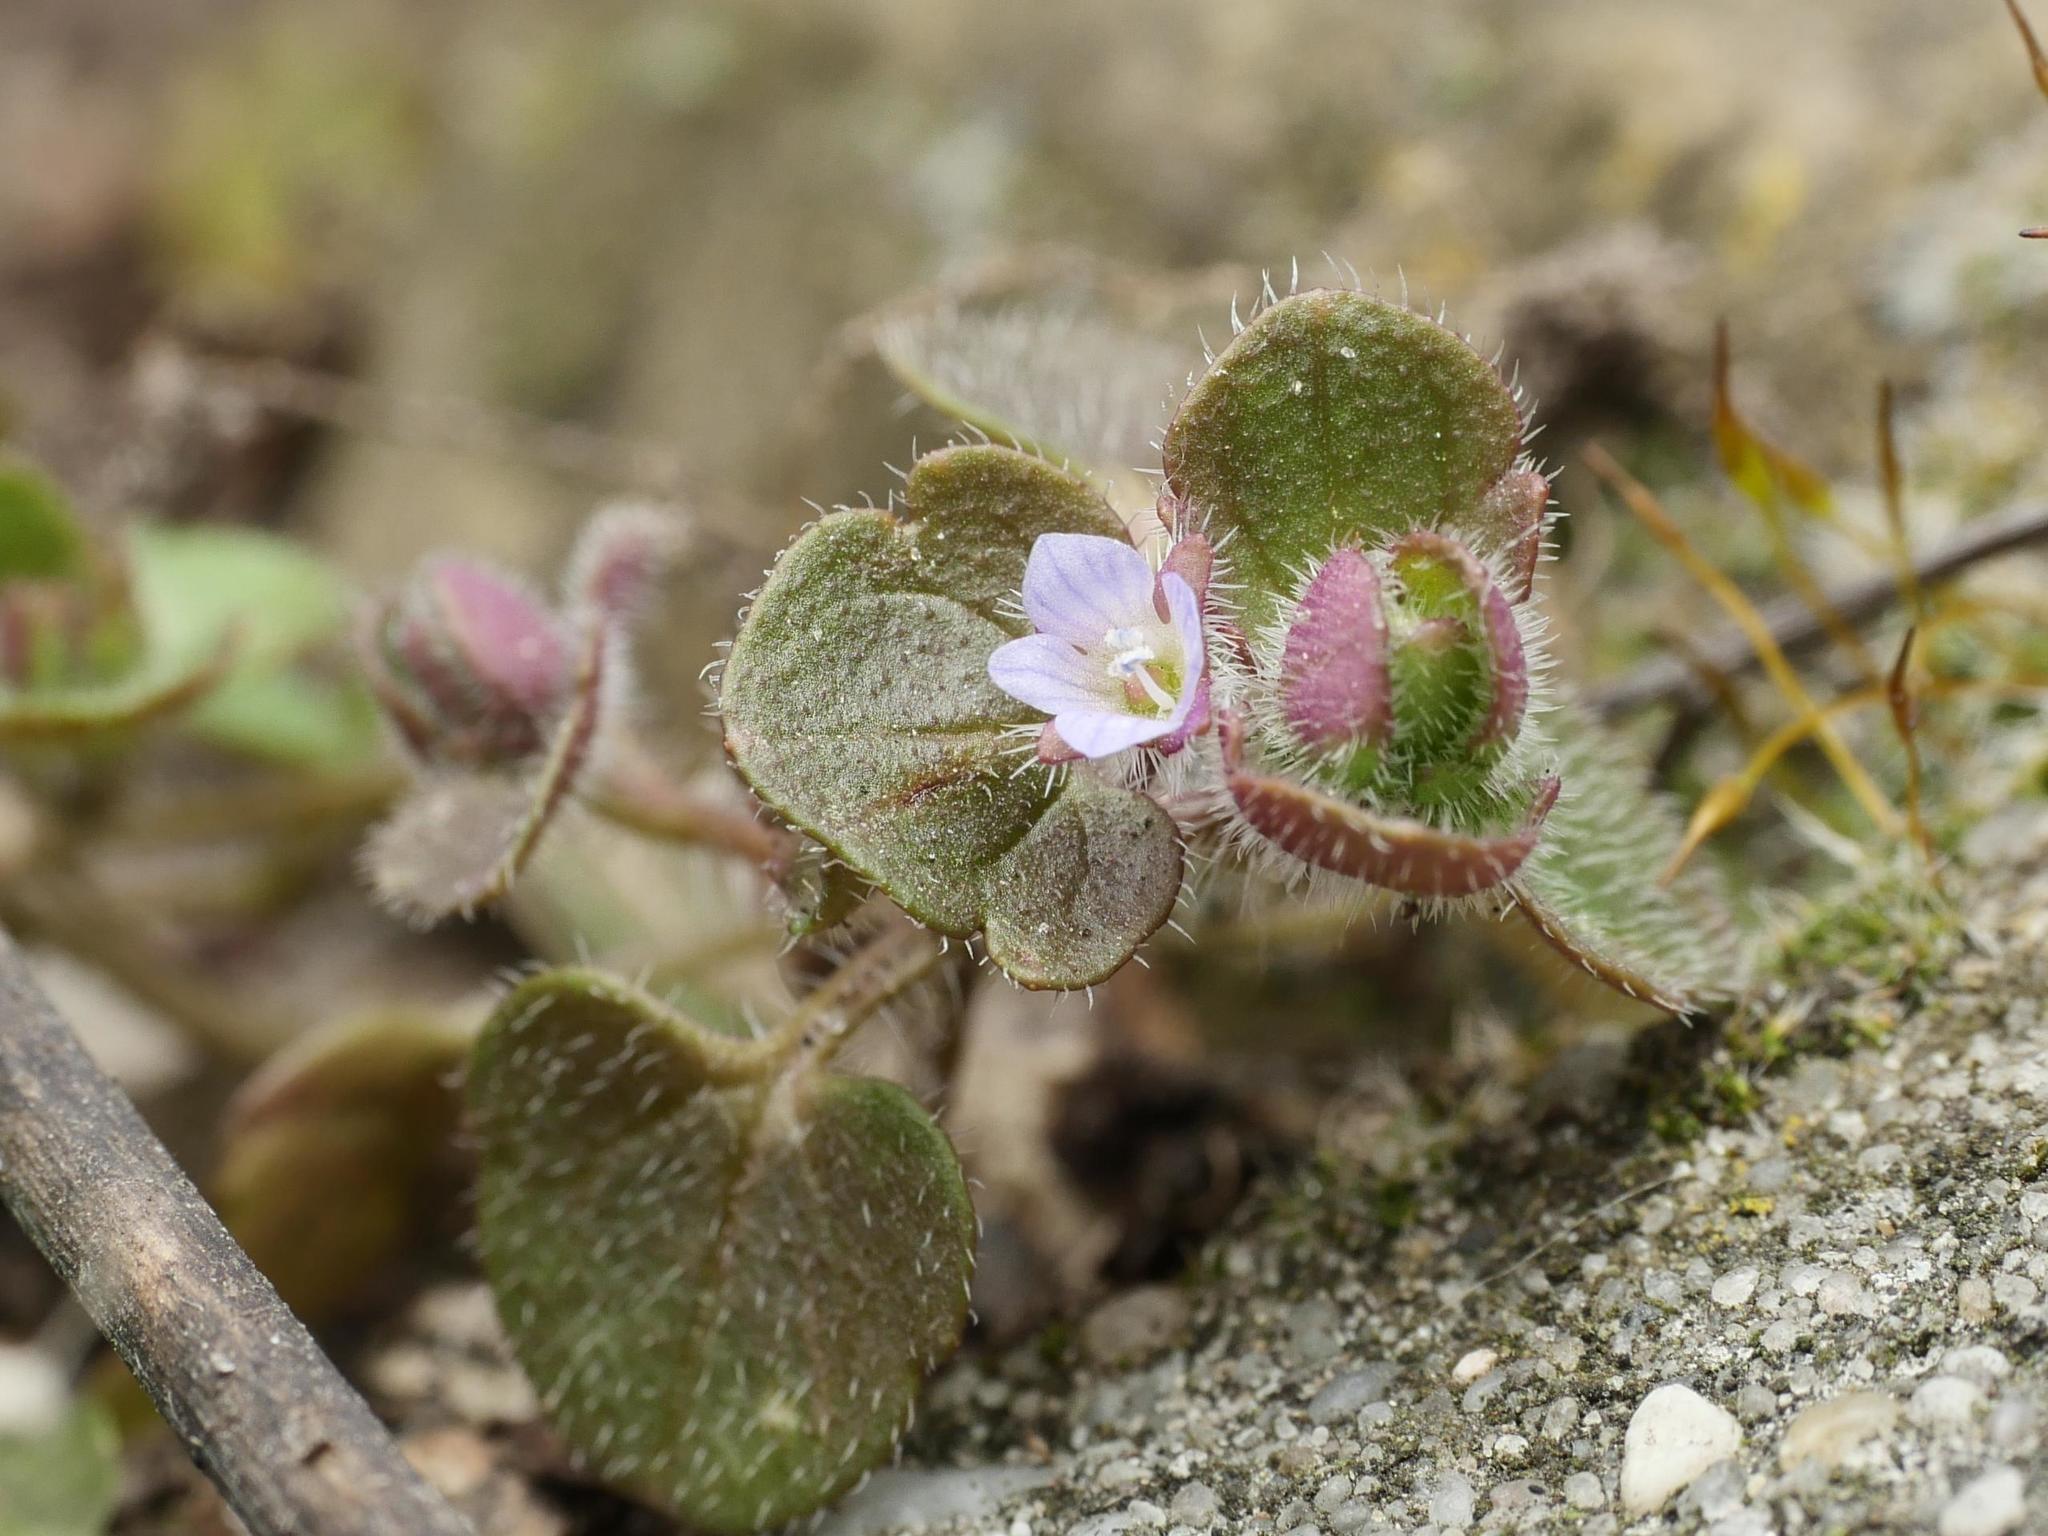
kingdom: Plantae
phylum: Tracheophyta
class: Magnoliopsida
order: Lamiales
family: Plantaginaceae
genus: Veronica
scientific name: Veronica sublobata
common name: False ivy-leaved speedwell
